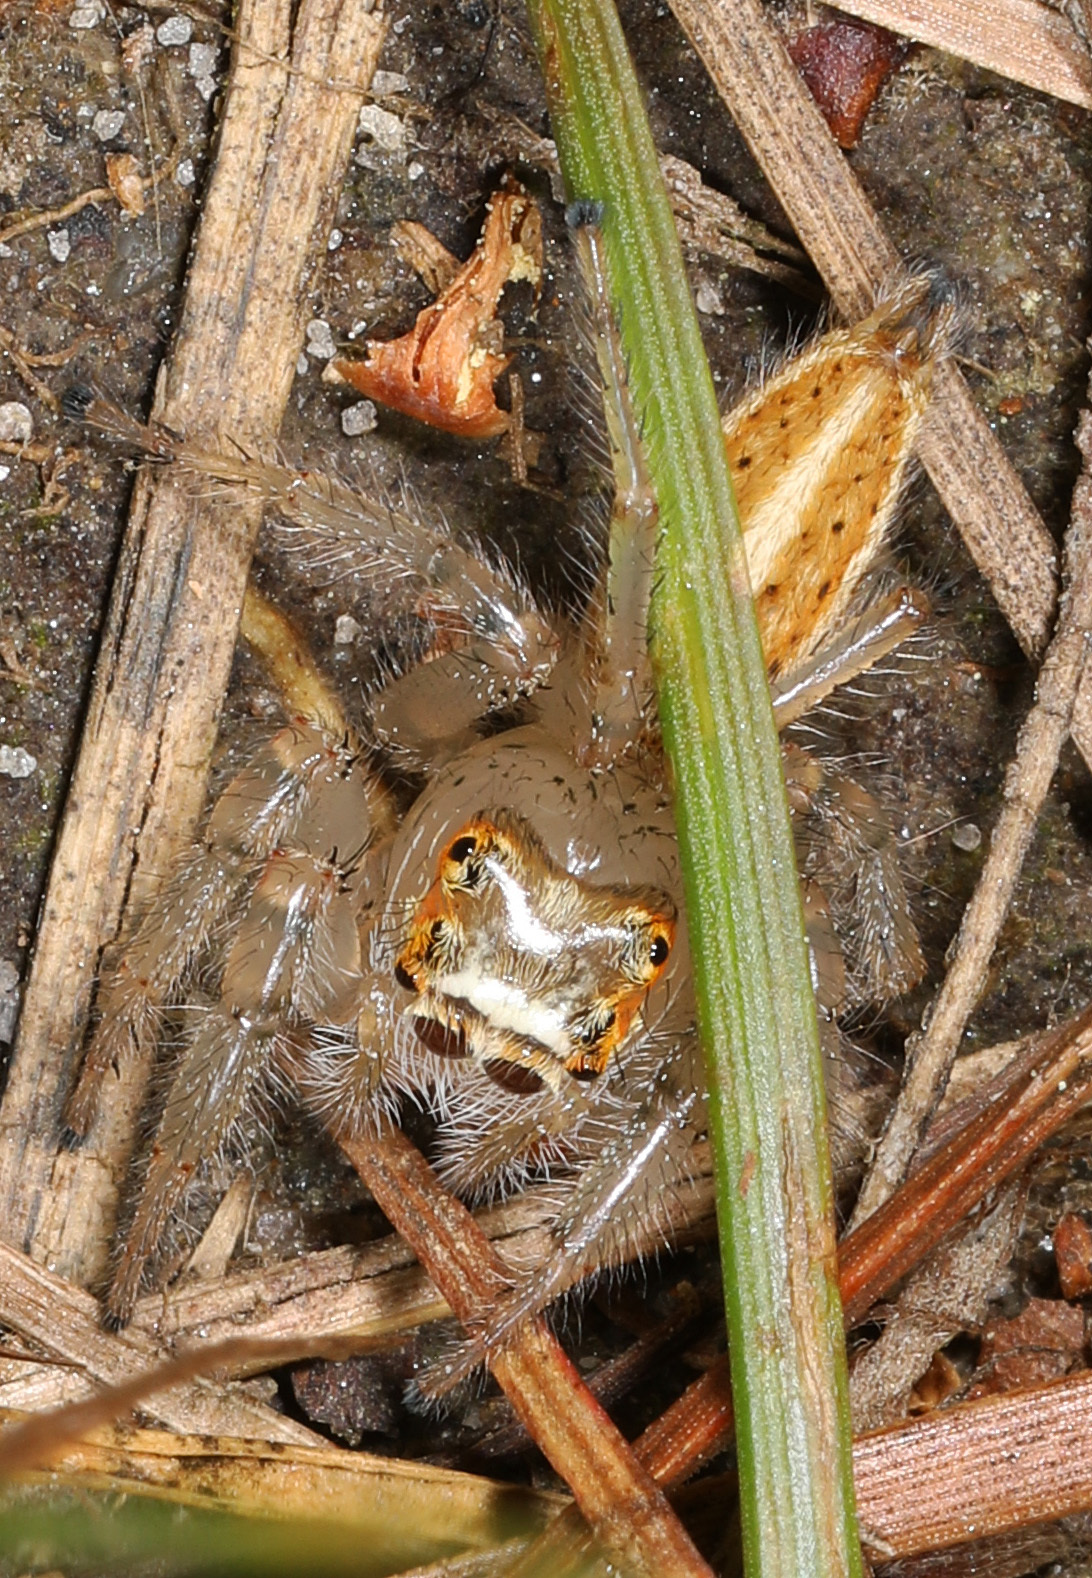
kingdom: Animalia
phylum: Arthropoda
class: Arachnida
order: Araneae
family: Salticidae
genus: Colonus
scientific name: Colonus sylvanus
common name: Jumping spiders
